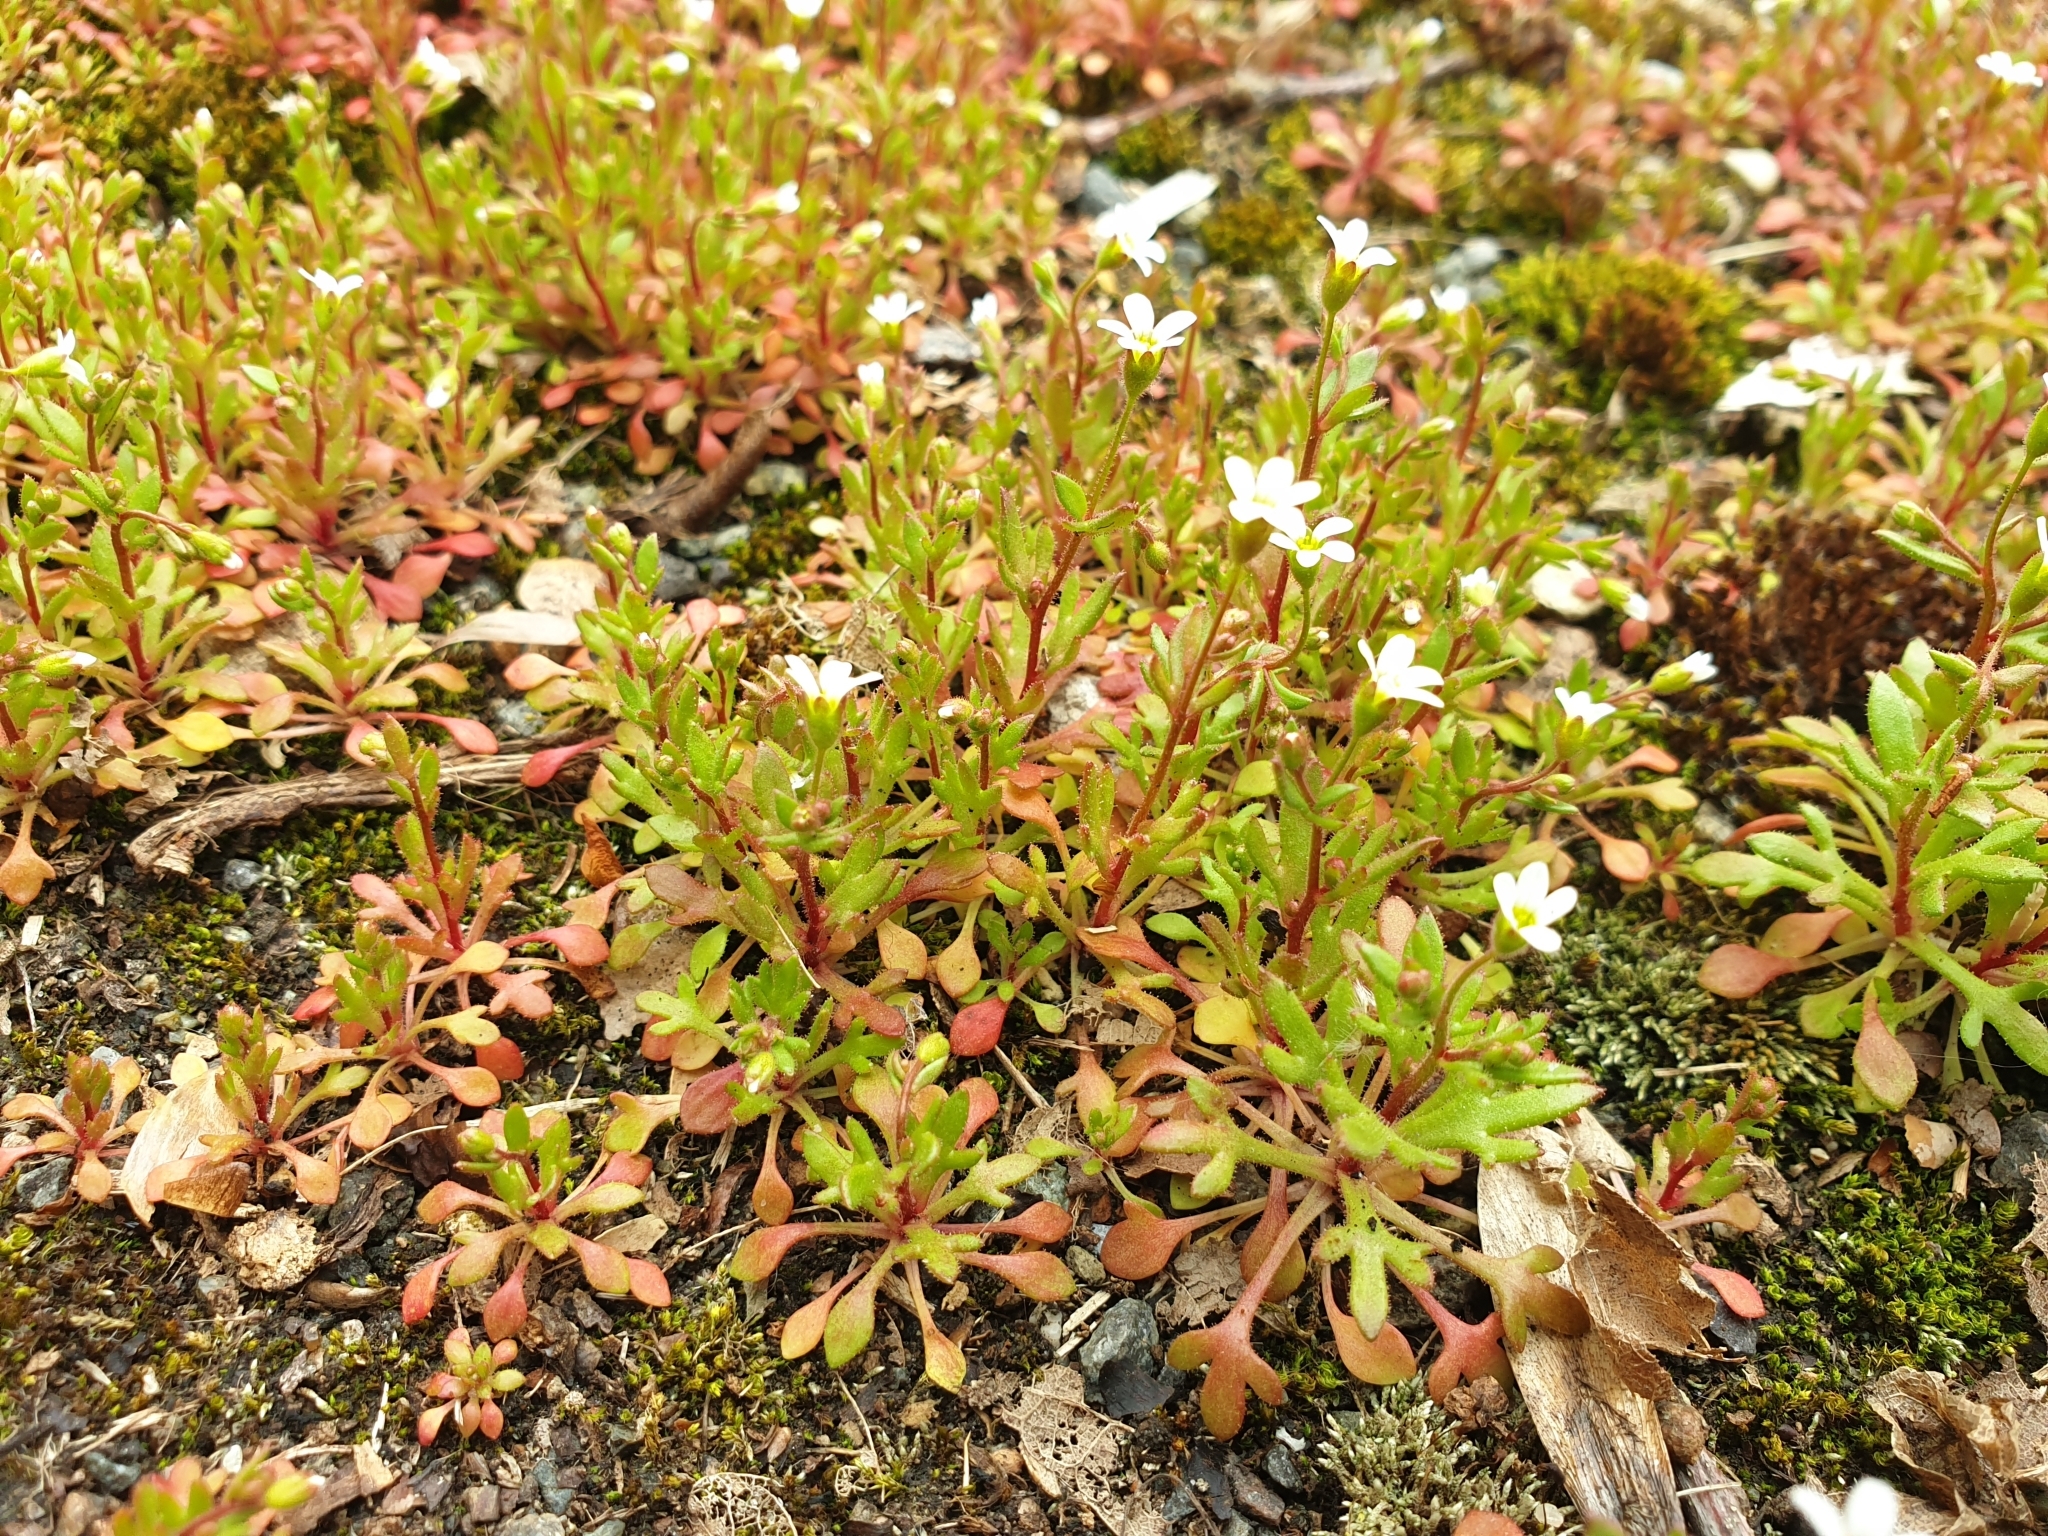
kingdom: Plantae
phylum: Tracheophyta
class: Magnoliopsida
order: Saxifragales
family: Saxifragaceae
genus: Saxifraga
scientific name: Saxifraga tridactylites
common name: Rue-leaved saxifrage
